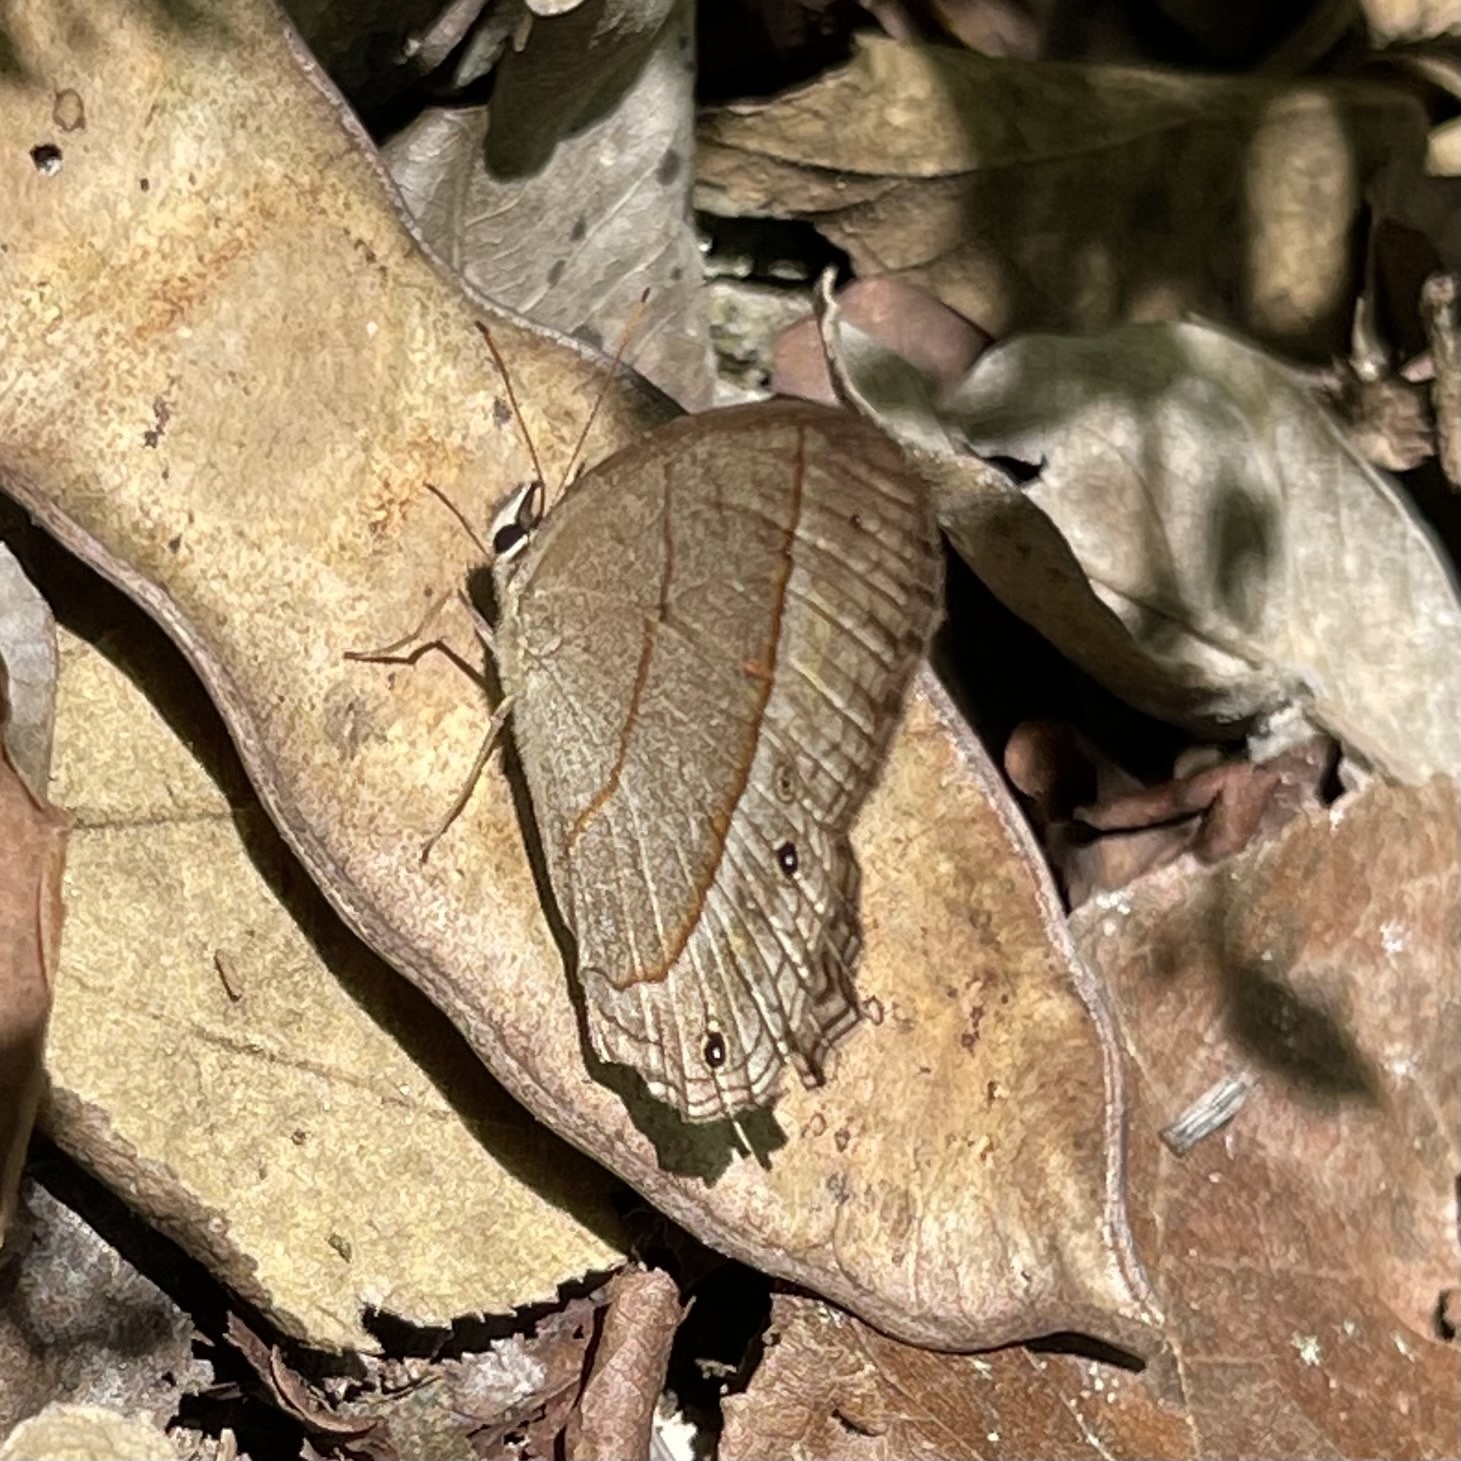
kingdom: Animalia
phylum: Arthropoda
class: Insecta
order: Lepidoptera
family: Nymphalidae
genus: Euptychia
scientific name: Euptychia Cissia pompilia
